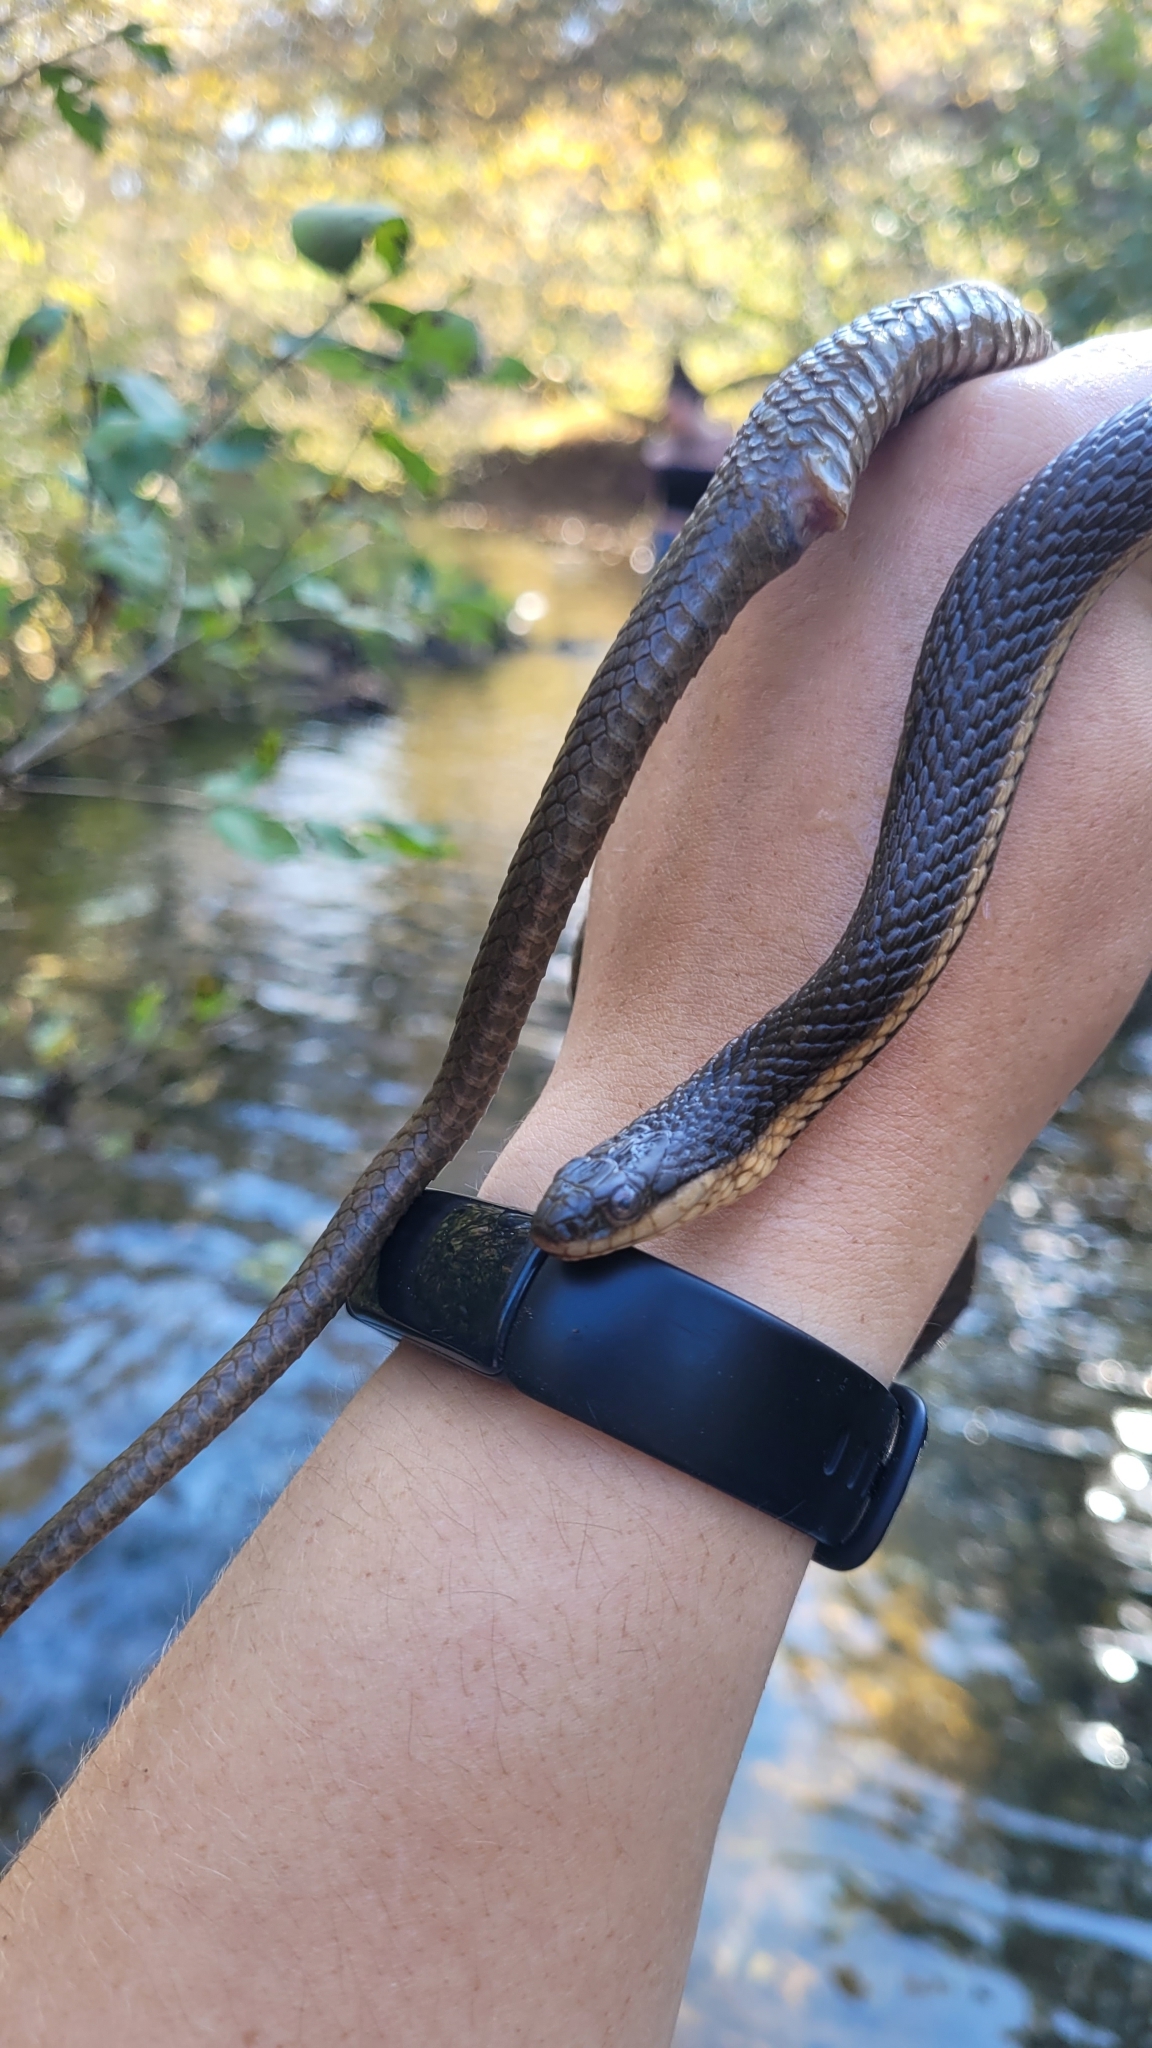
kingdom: Animalia
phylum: Chordata
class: Squamata
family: Colubridae
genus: Regina
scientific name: Regina septemvittata
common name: Queen snake
